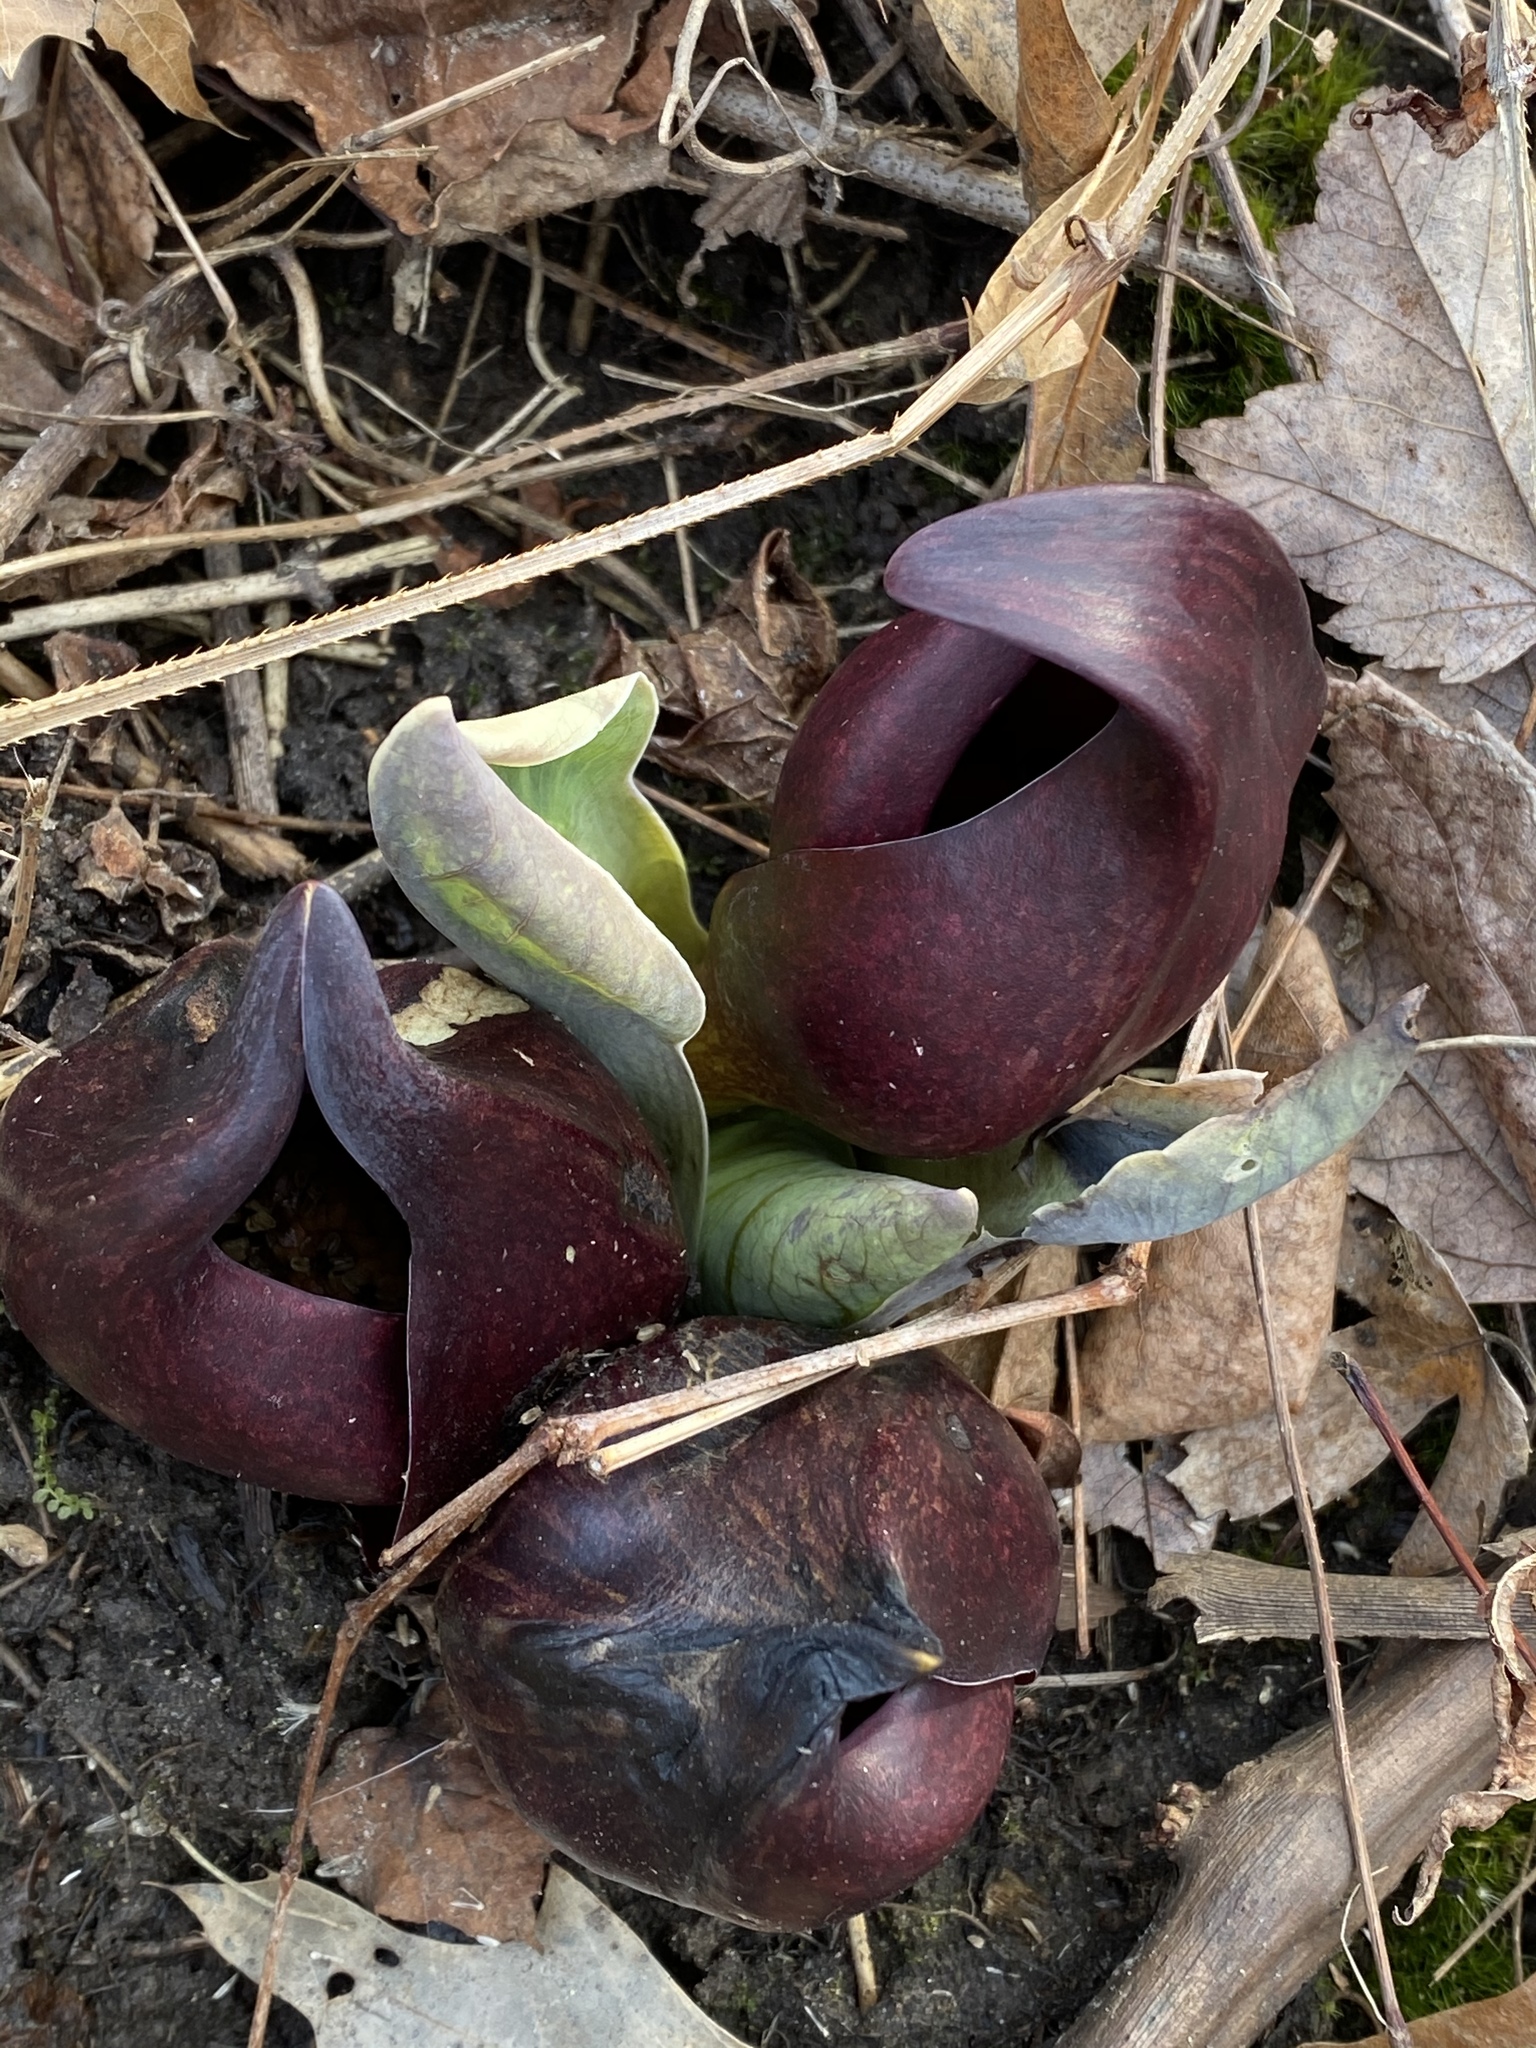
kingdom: Plantae
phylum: Tracheophyta
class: Liliopsida
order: Alismatales
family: Araceae
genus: Symplocarpus
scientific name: Symplocarpus foetidus
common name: Eastern skunk cabbage
